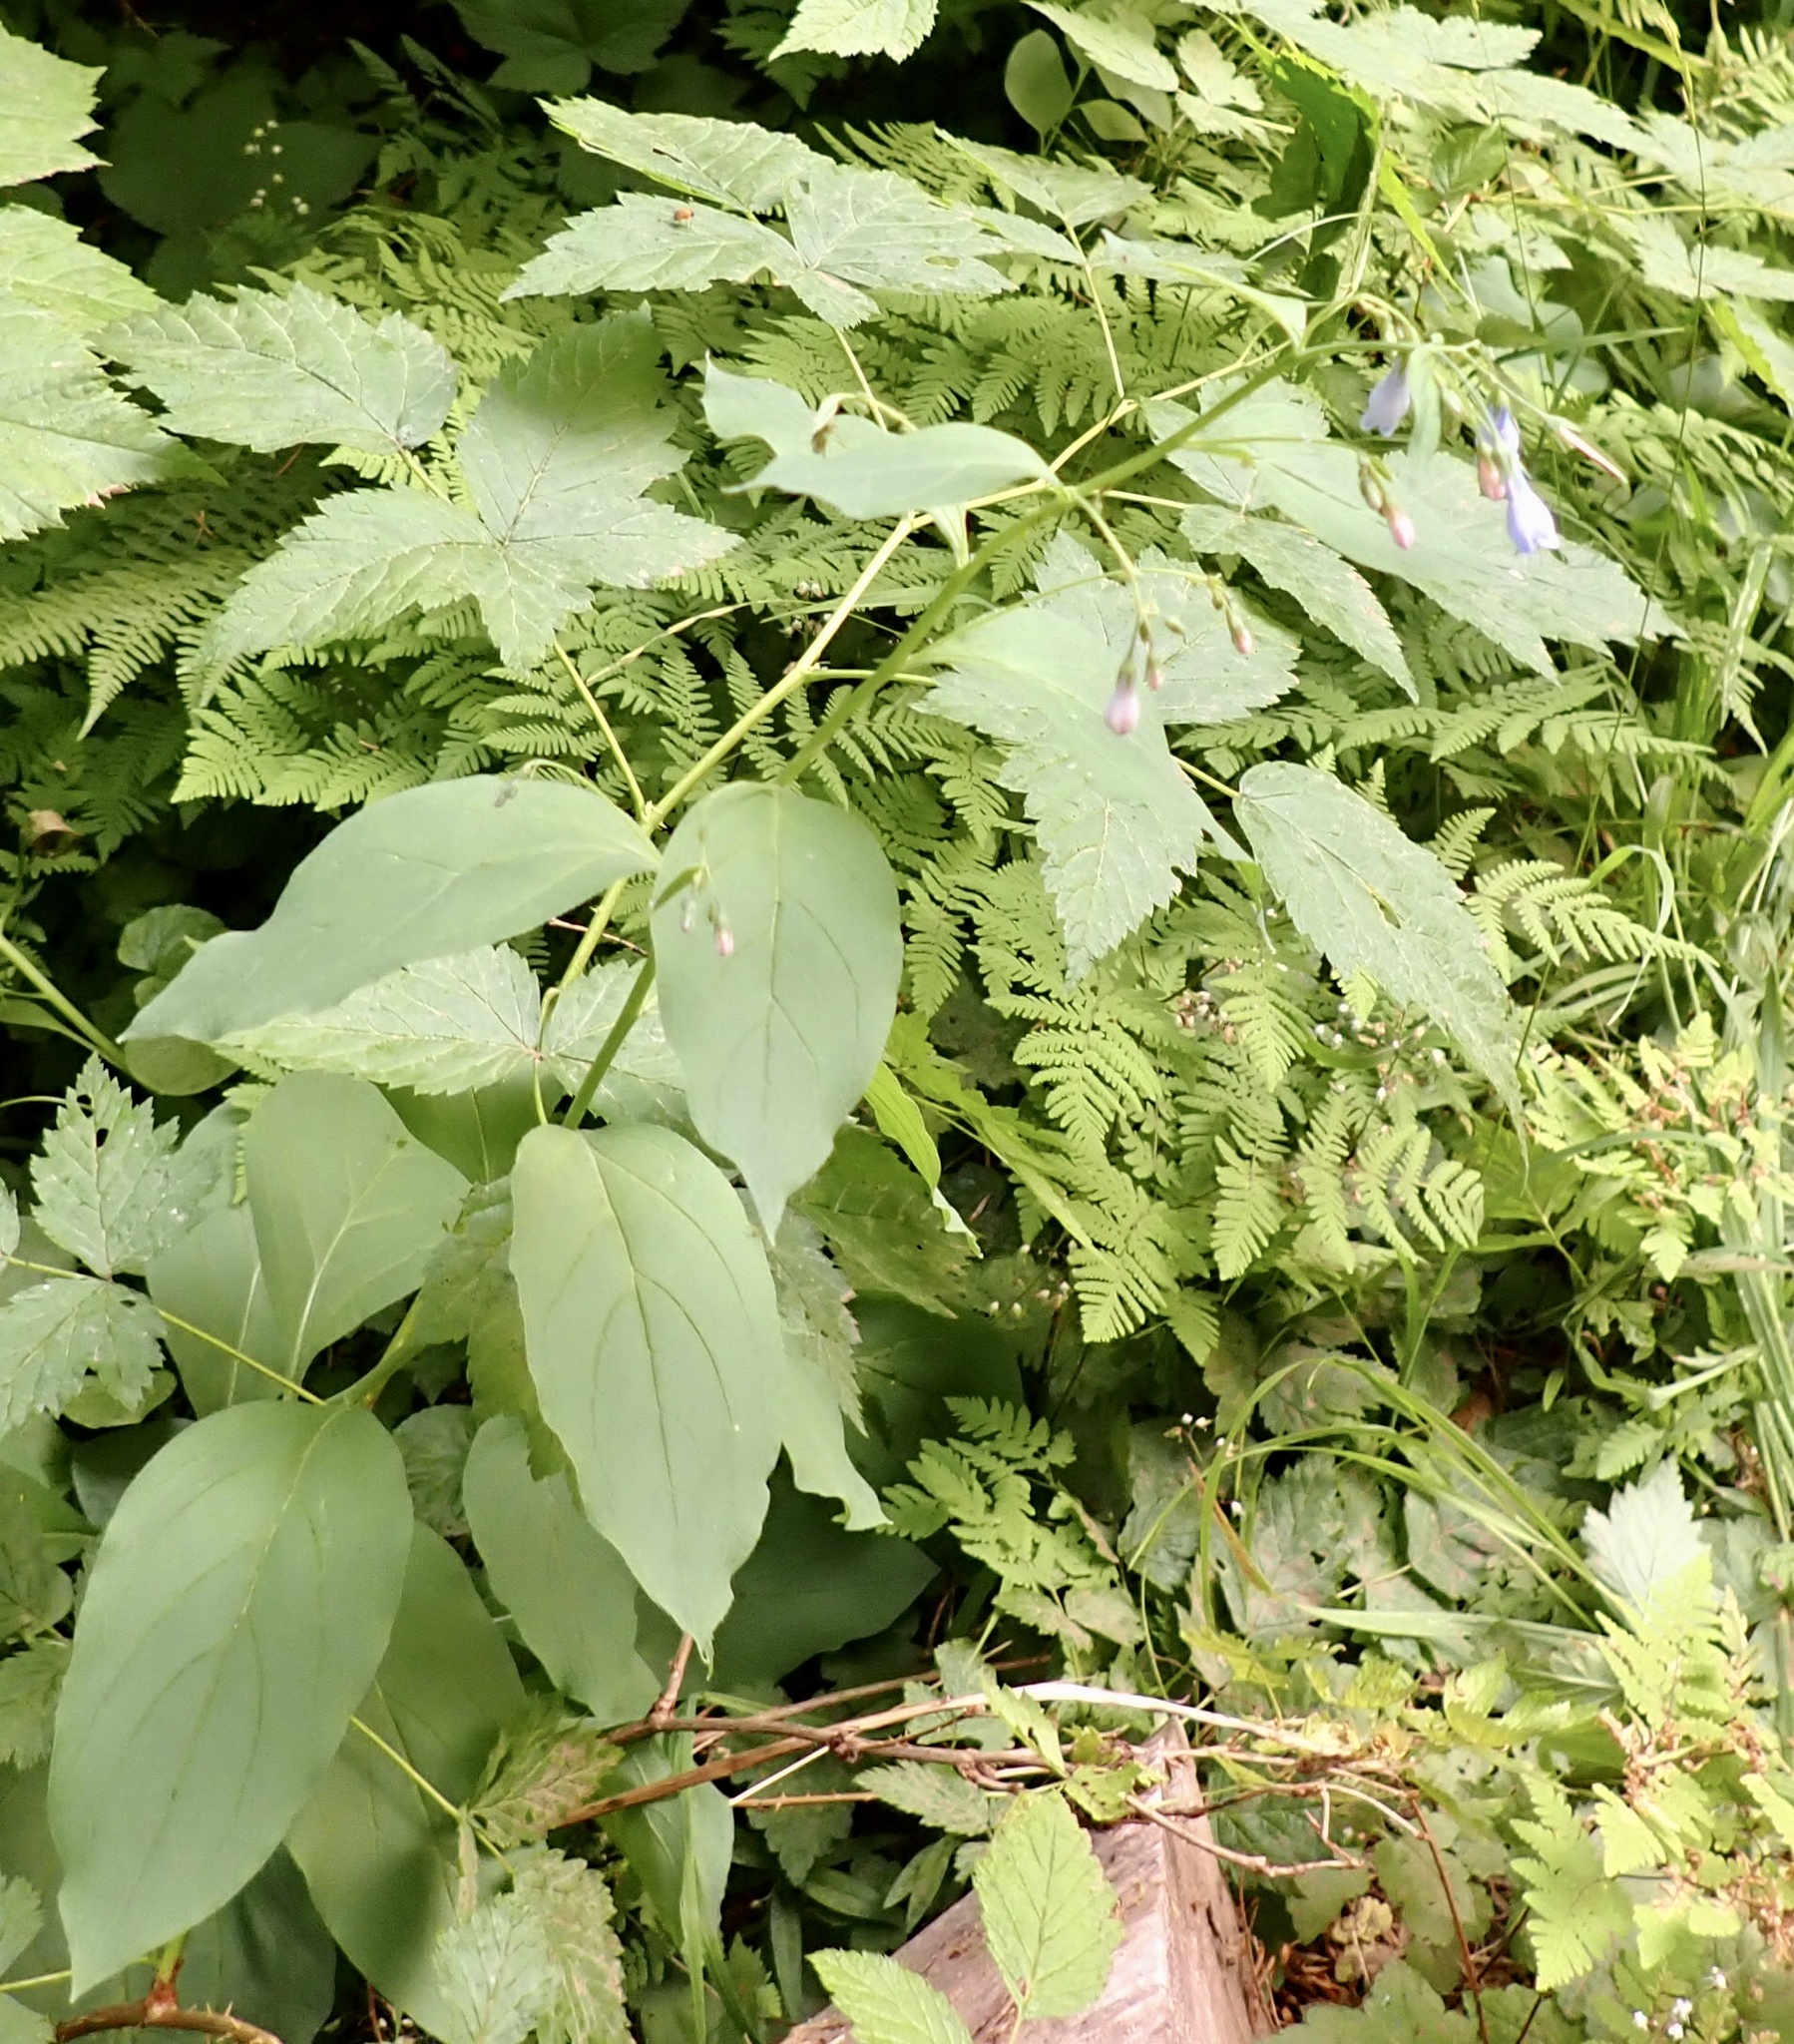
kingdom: Plantae
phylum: Tracheophyta
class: Magnoliopsida
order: Boraginales
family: Boraginaceae
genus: Mertensia
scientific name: Mertensia paniculata
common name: Panicled bluebells
